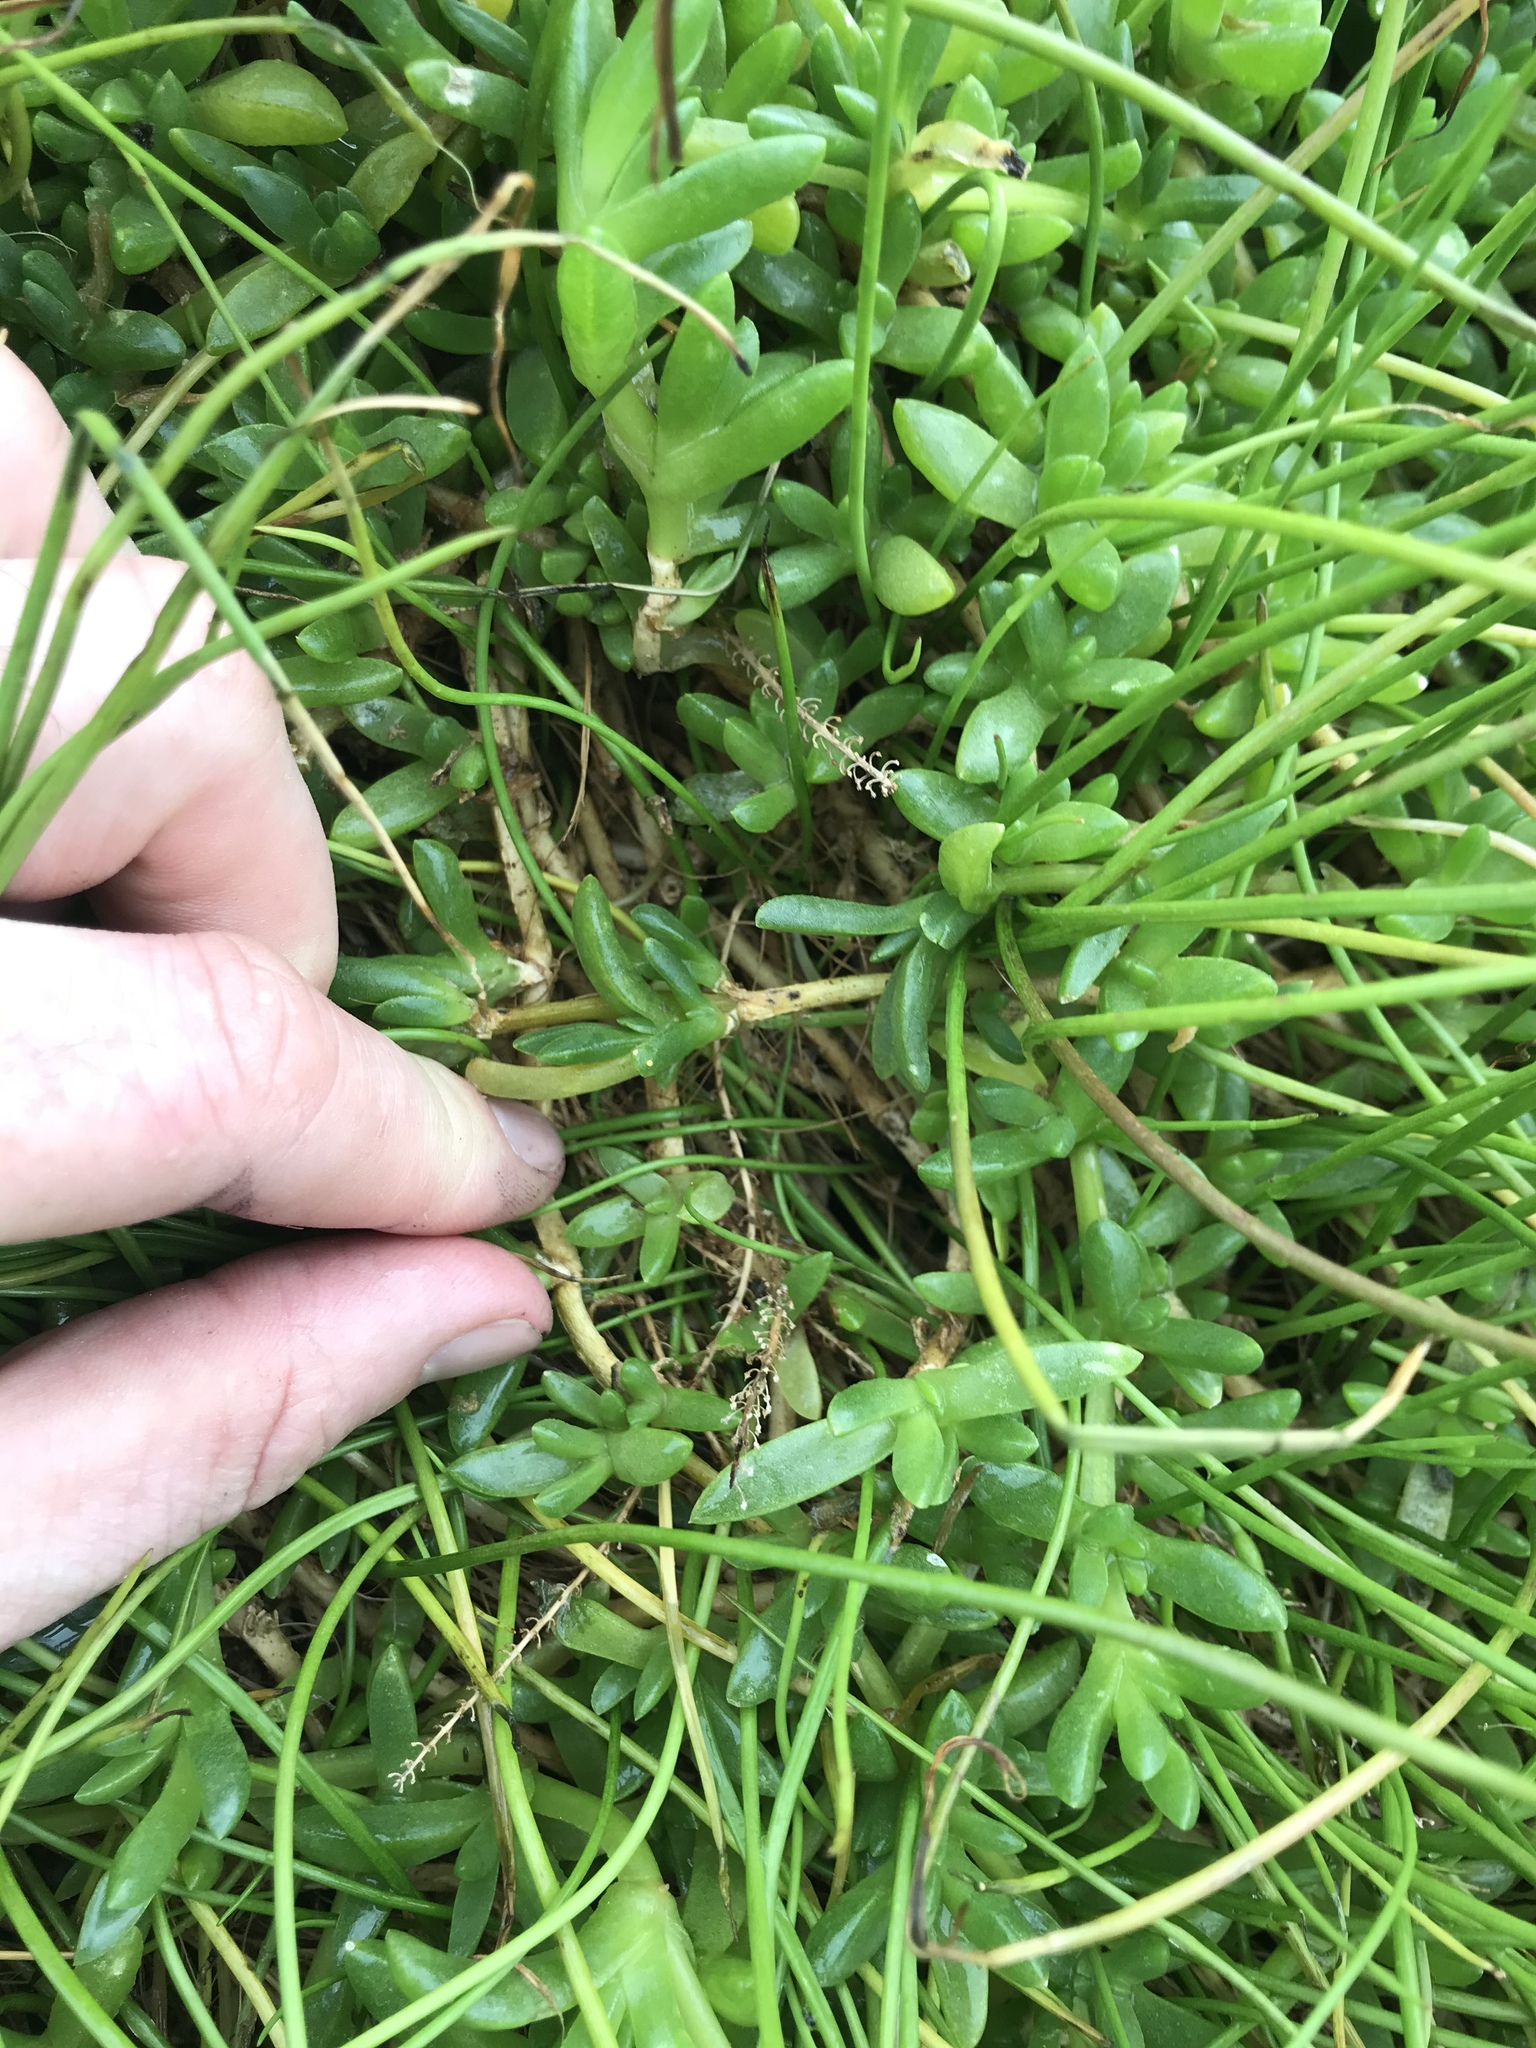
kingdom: Plantae
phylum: Tracheophyta
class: Liliopsida
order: Alismatales
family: Juncaginaceae
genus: Triglochin
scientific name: Triglochin striata
